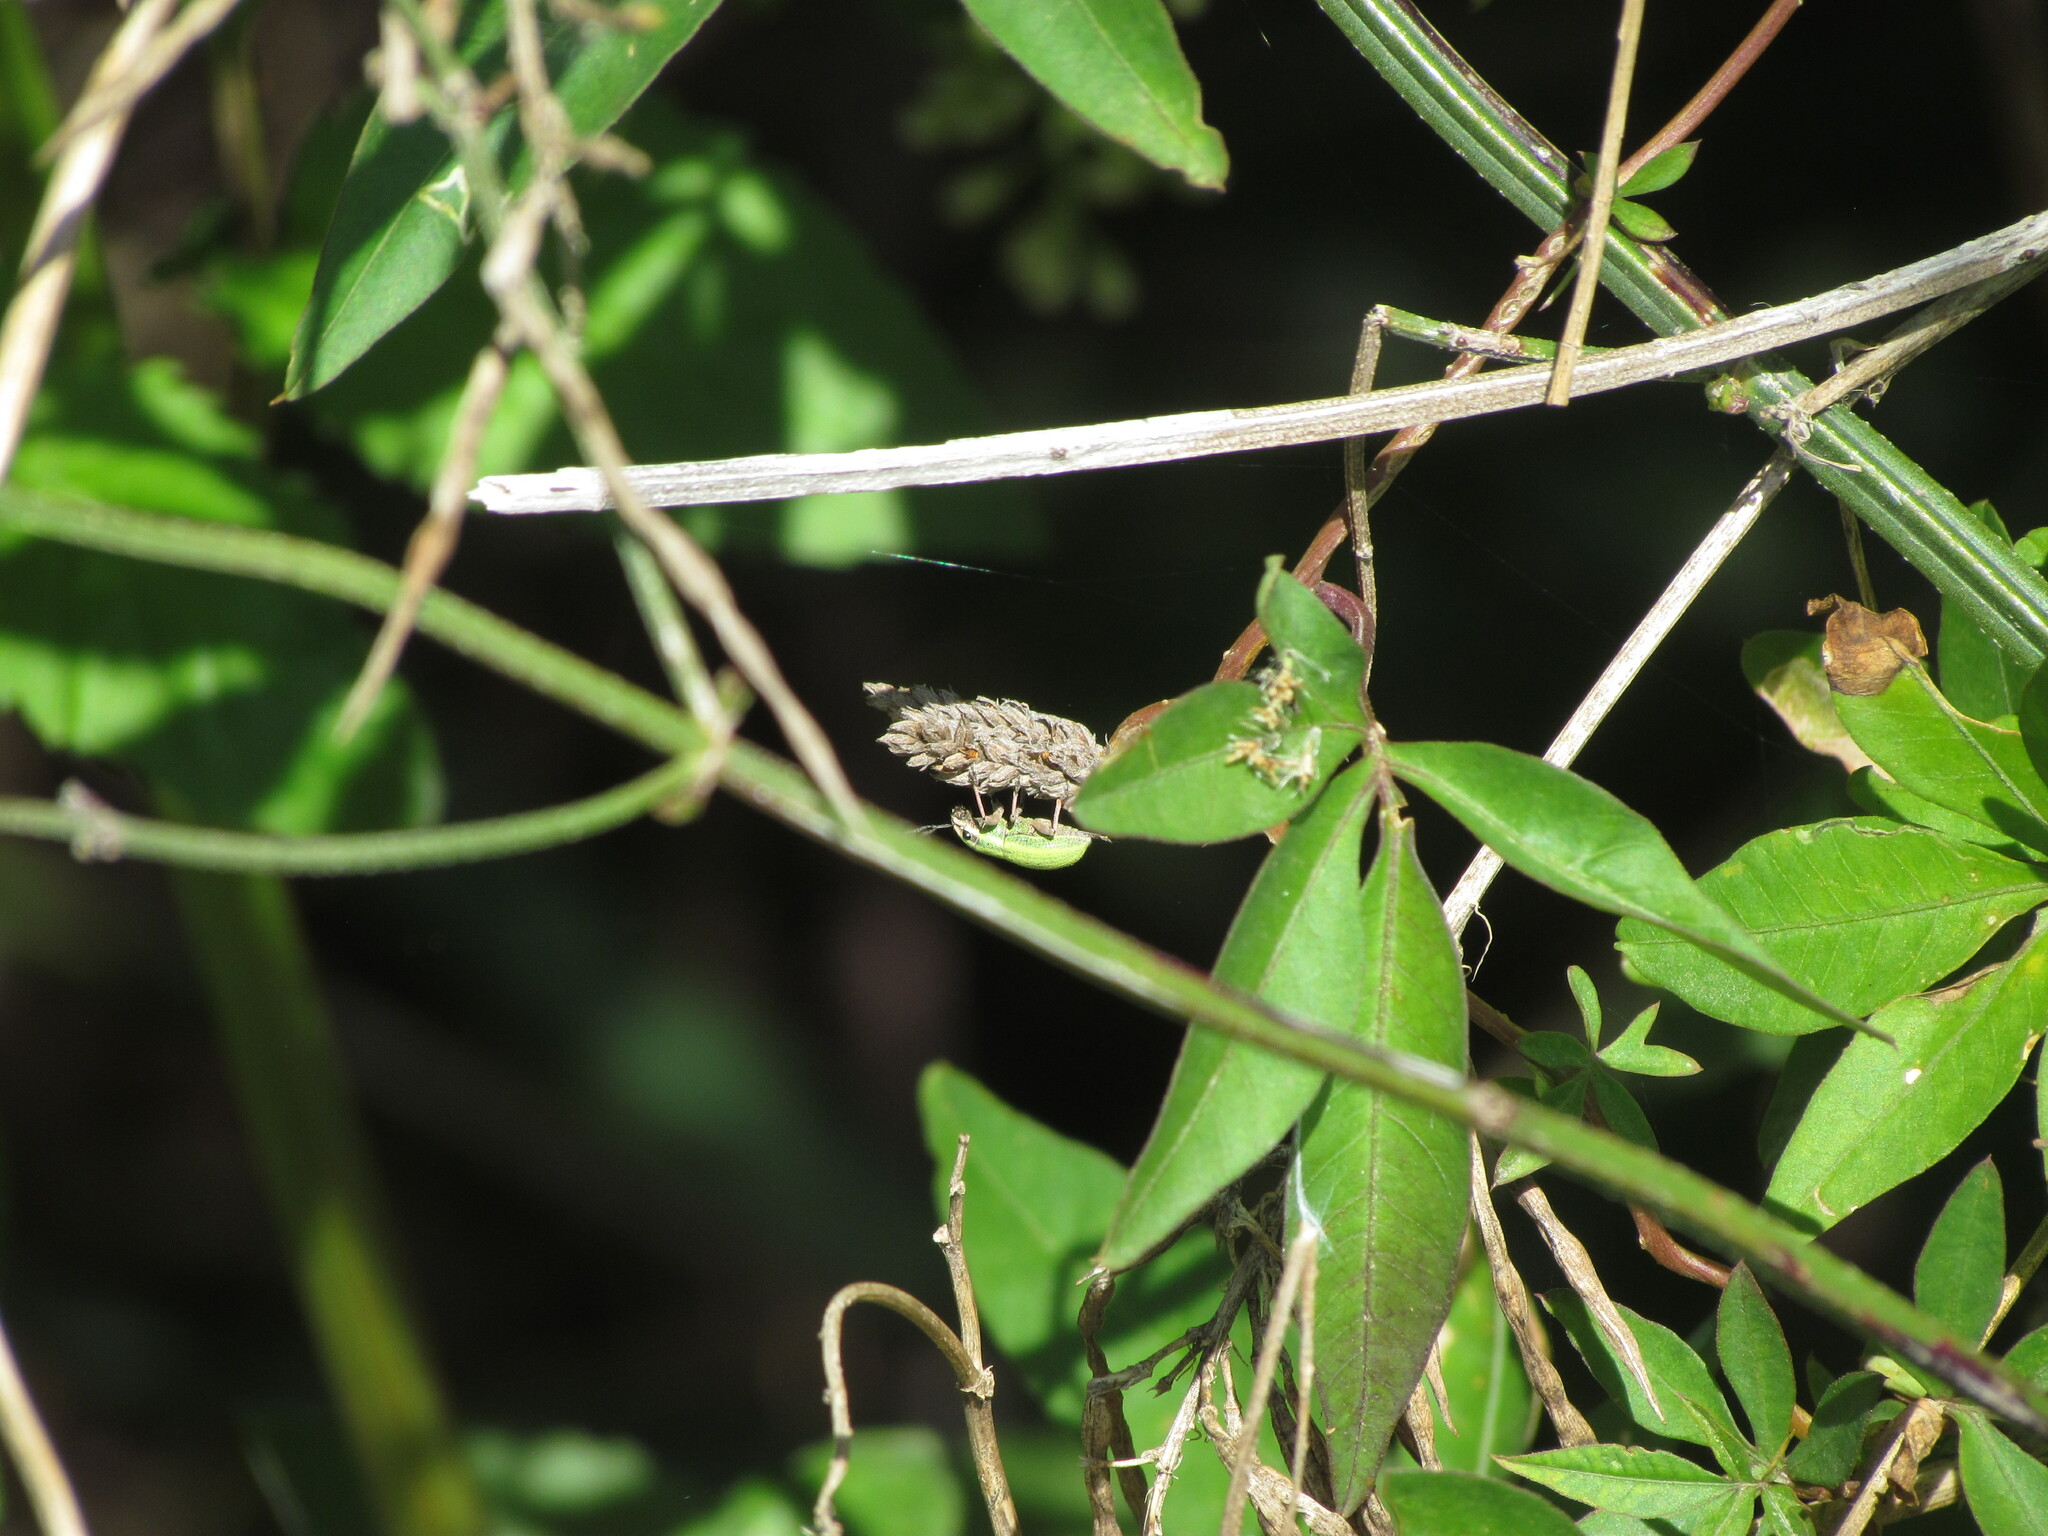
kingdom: Animalia
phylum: Arthropoda
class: Insecta
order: Coleoptera
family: Curculionidae
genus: Pantomorus
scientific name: Pantomorus viridisquamosus
